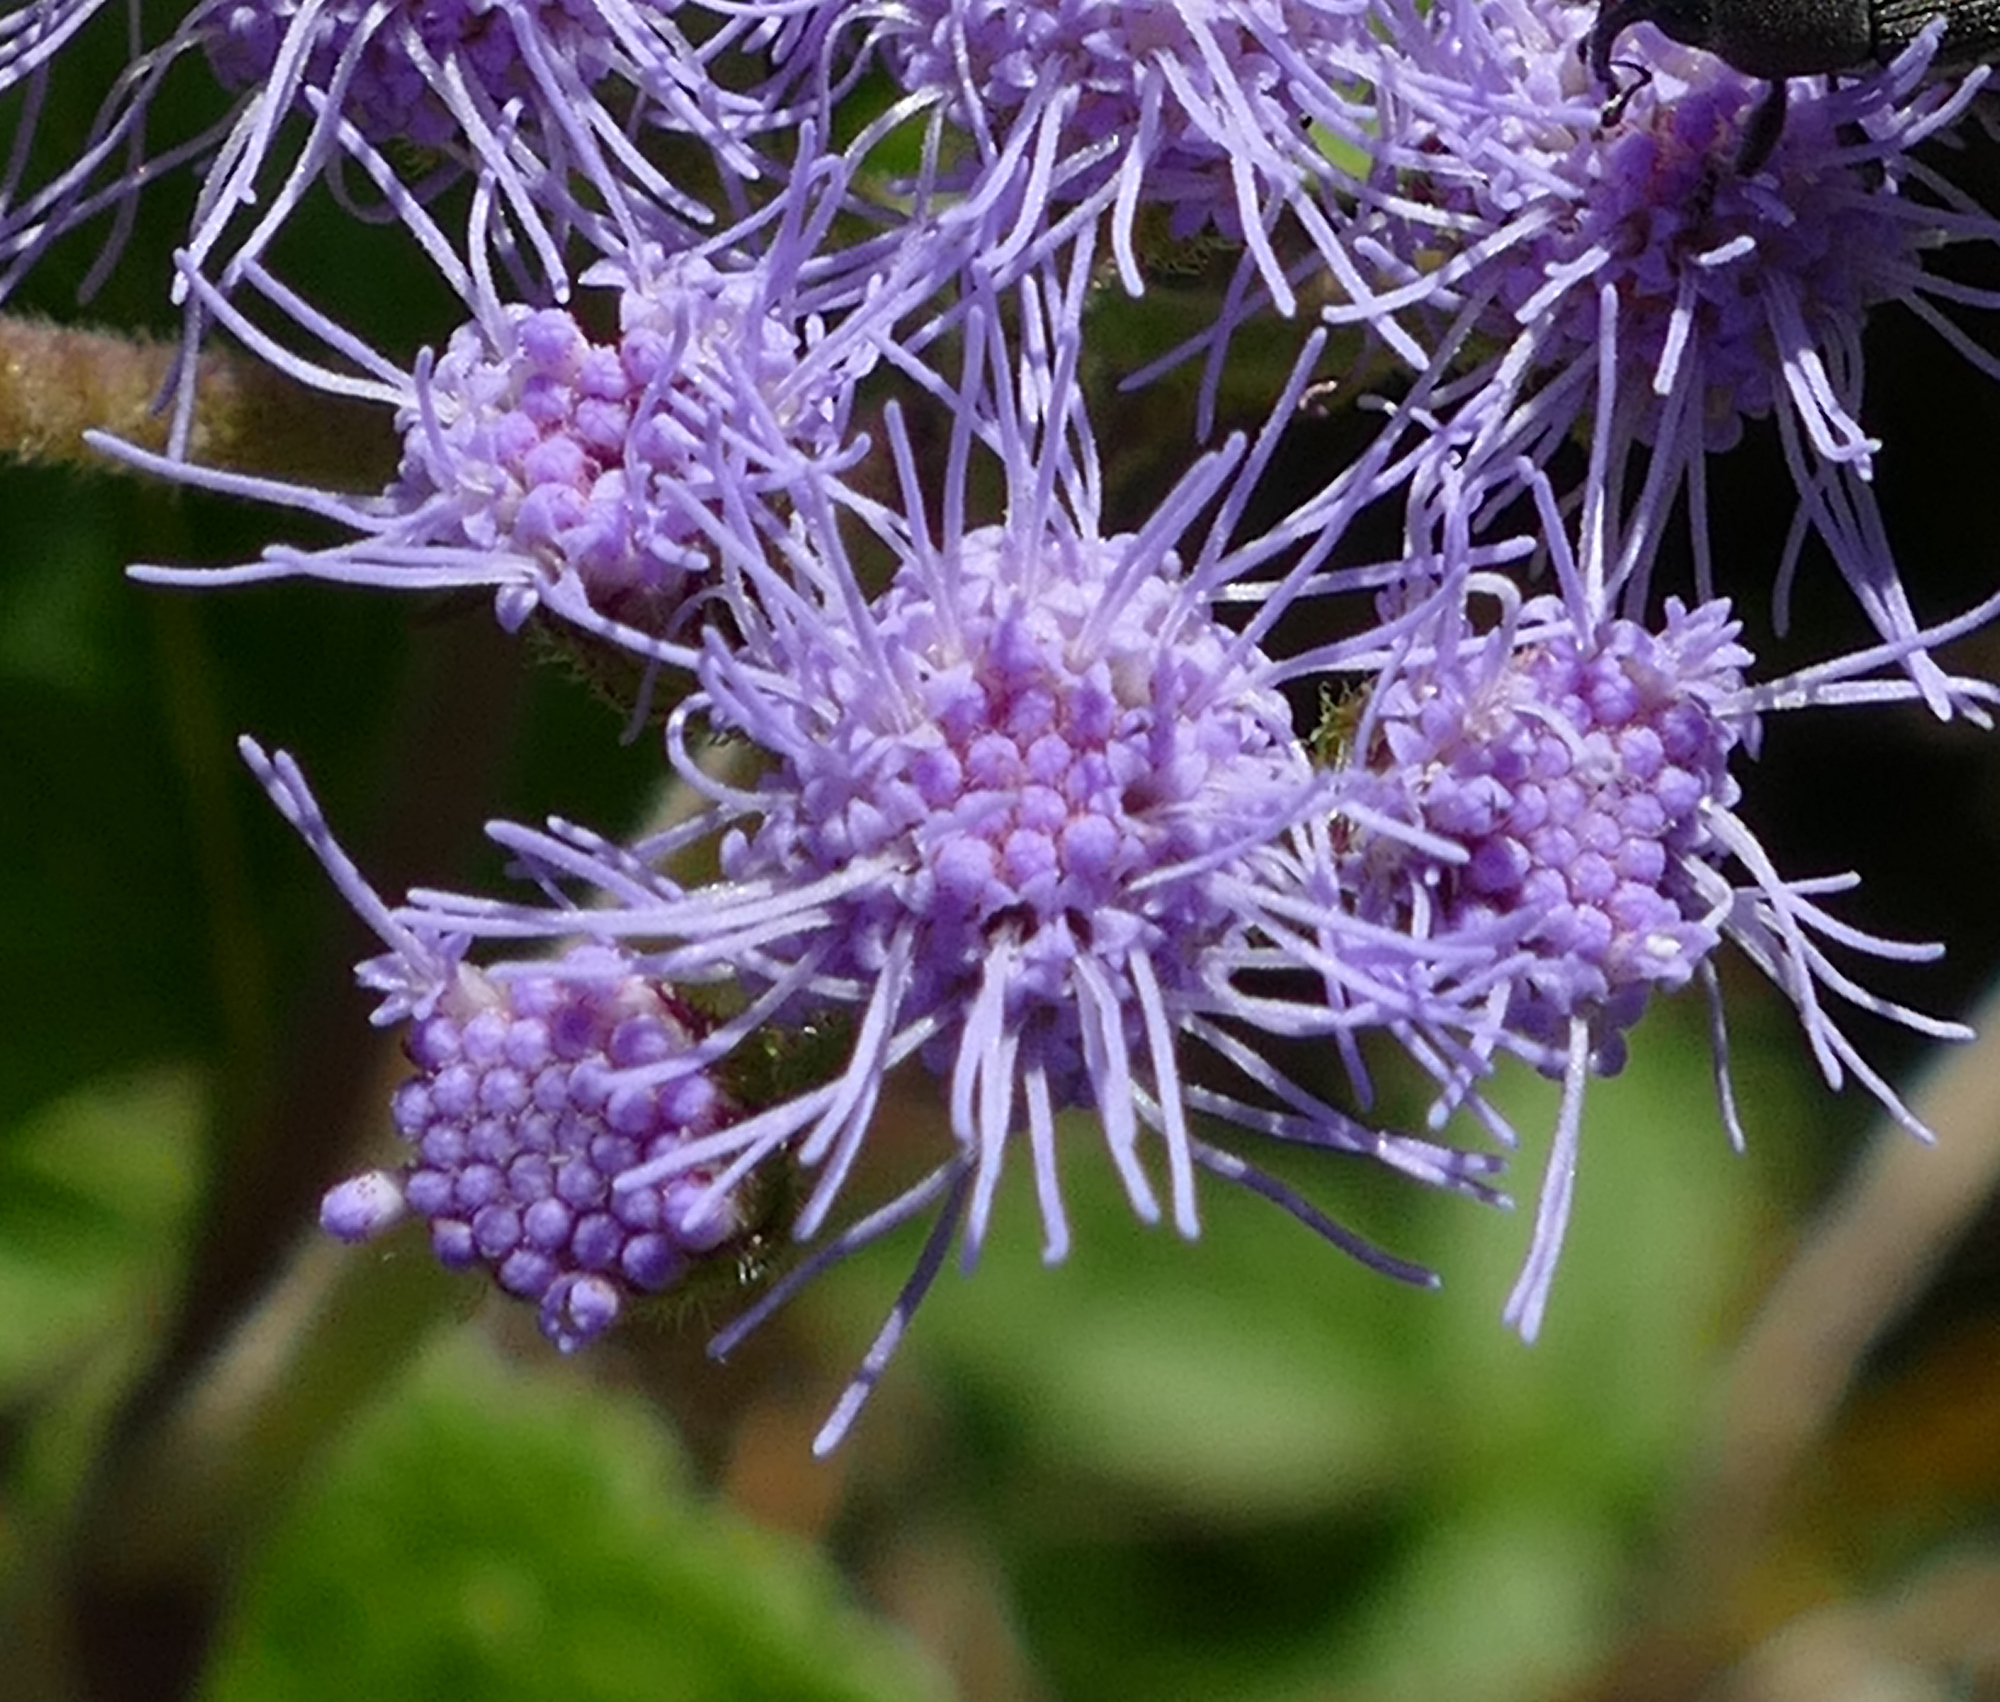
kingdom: Plantae
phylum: Tracheophyta
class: Magnoliopsida
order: Asterales
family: Asteraceae
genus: Conoclinium
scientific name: Conoclinium coelestinum
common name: Blue mistflower
